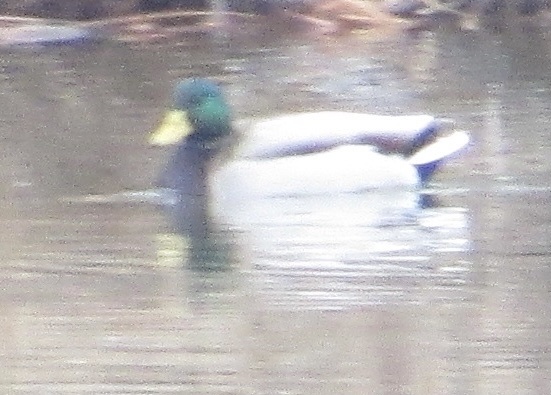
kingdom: Animalia
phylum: Chordata
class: Aves
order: Anseriformes
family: Anatidae
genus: Anas
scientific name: Anas platyrhynchos
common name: Mallard
